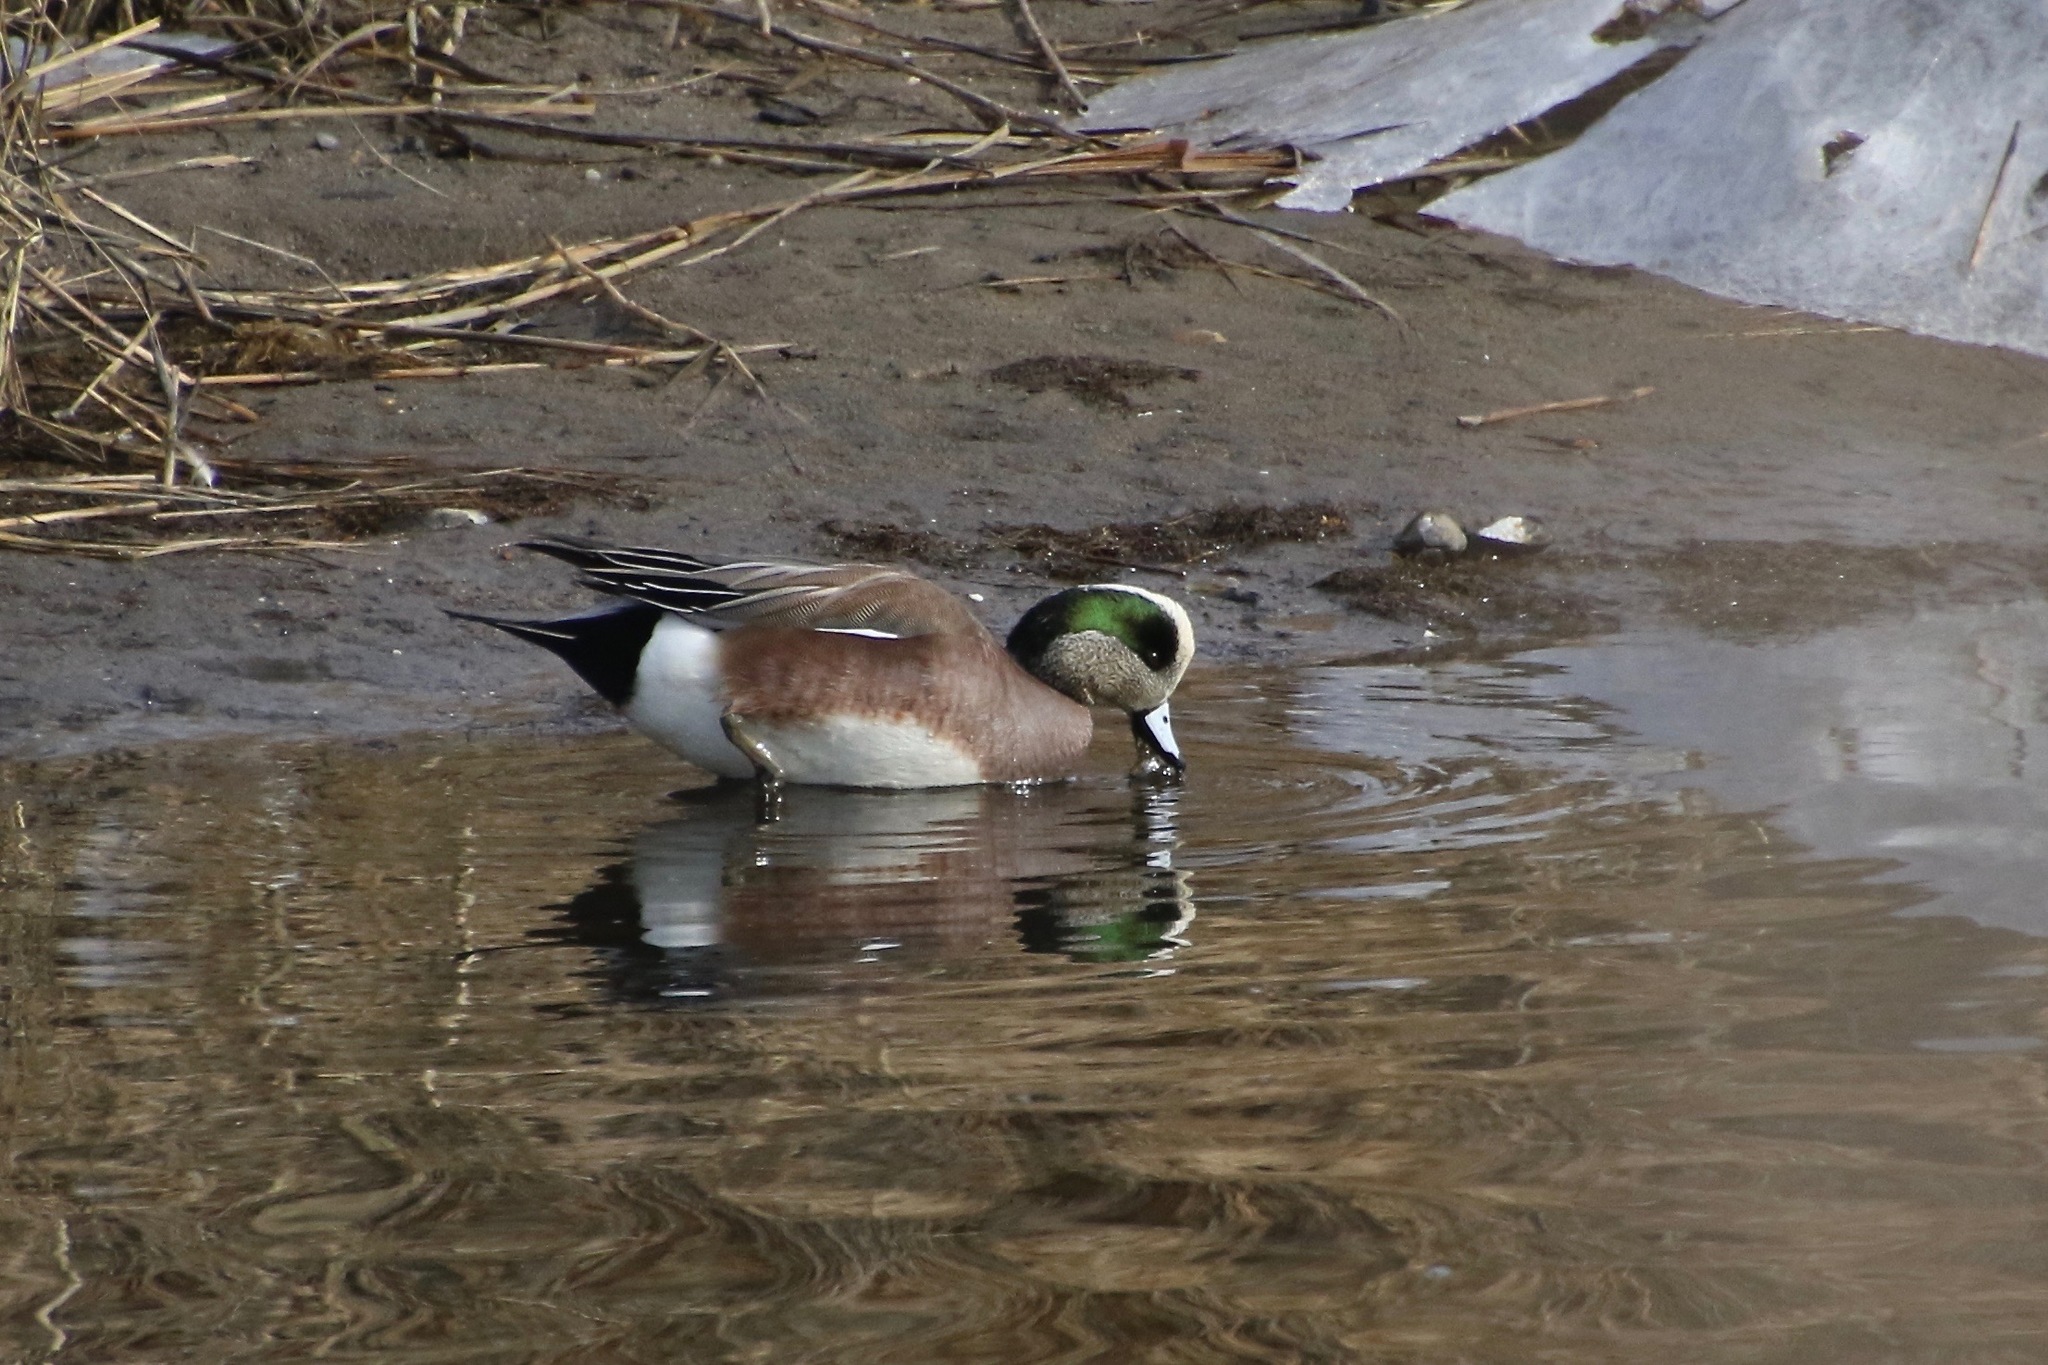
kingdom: Animalia
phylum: Chordata
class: Aves
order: Anseriformes
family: Anatidae
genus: Mareca
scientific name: Mareca americana
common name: American wigeon
